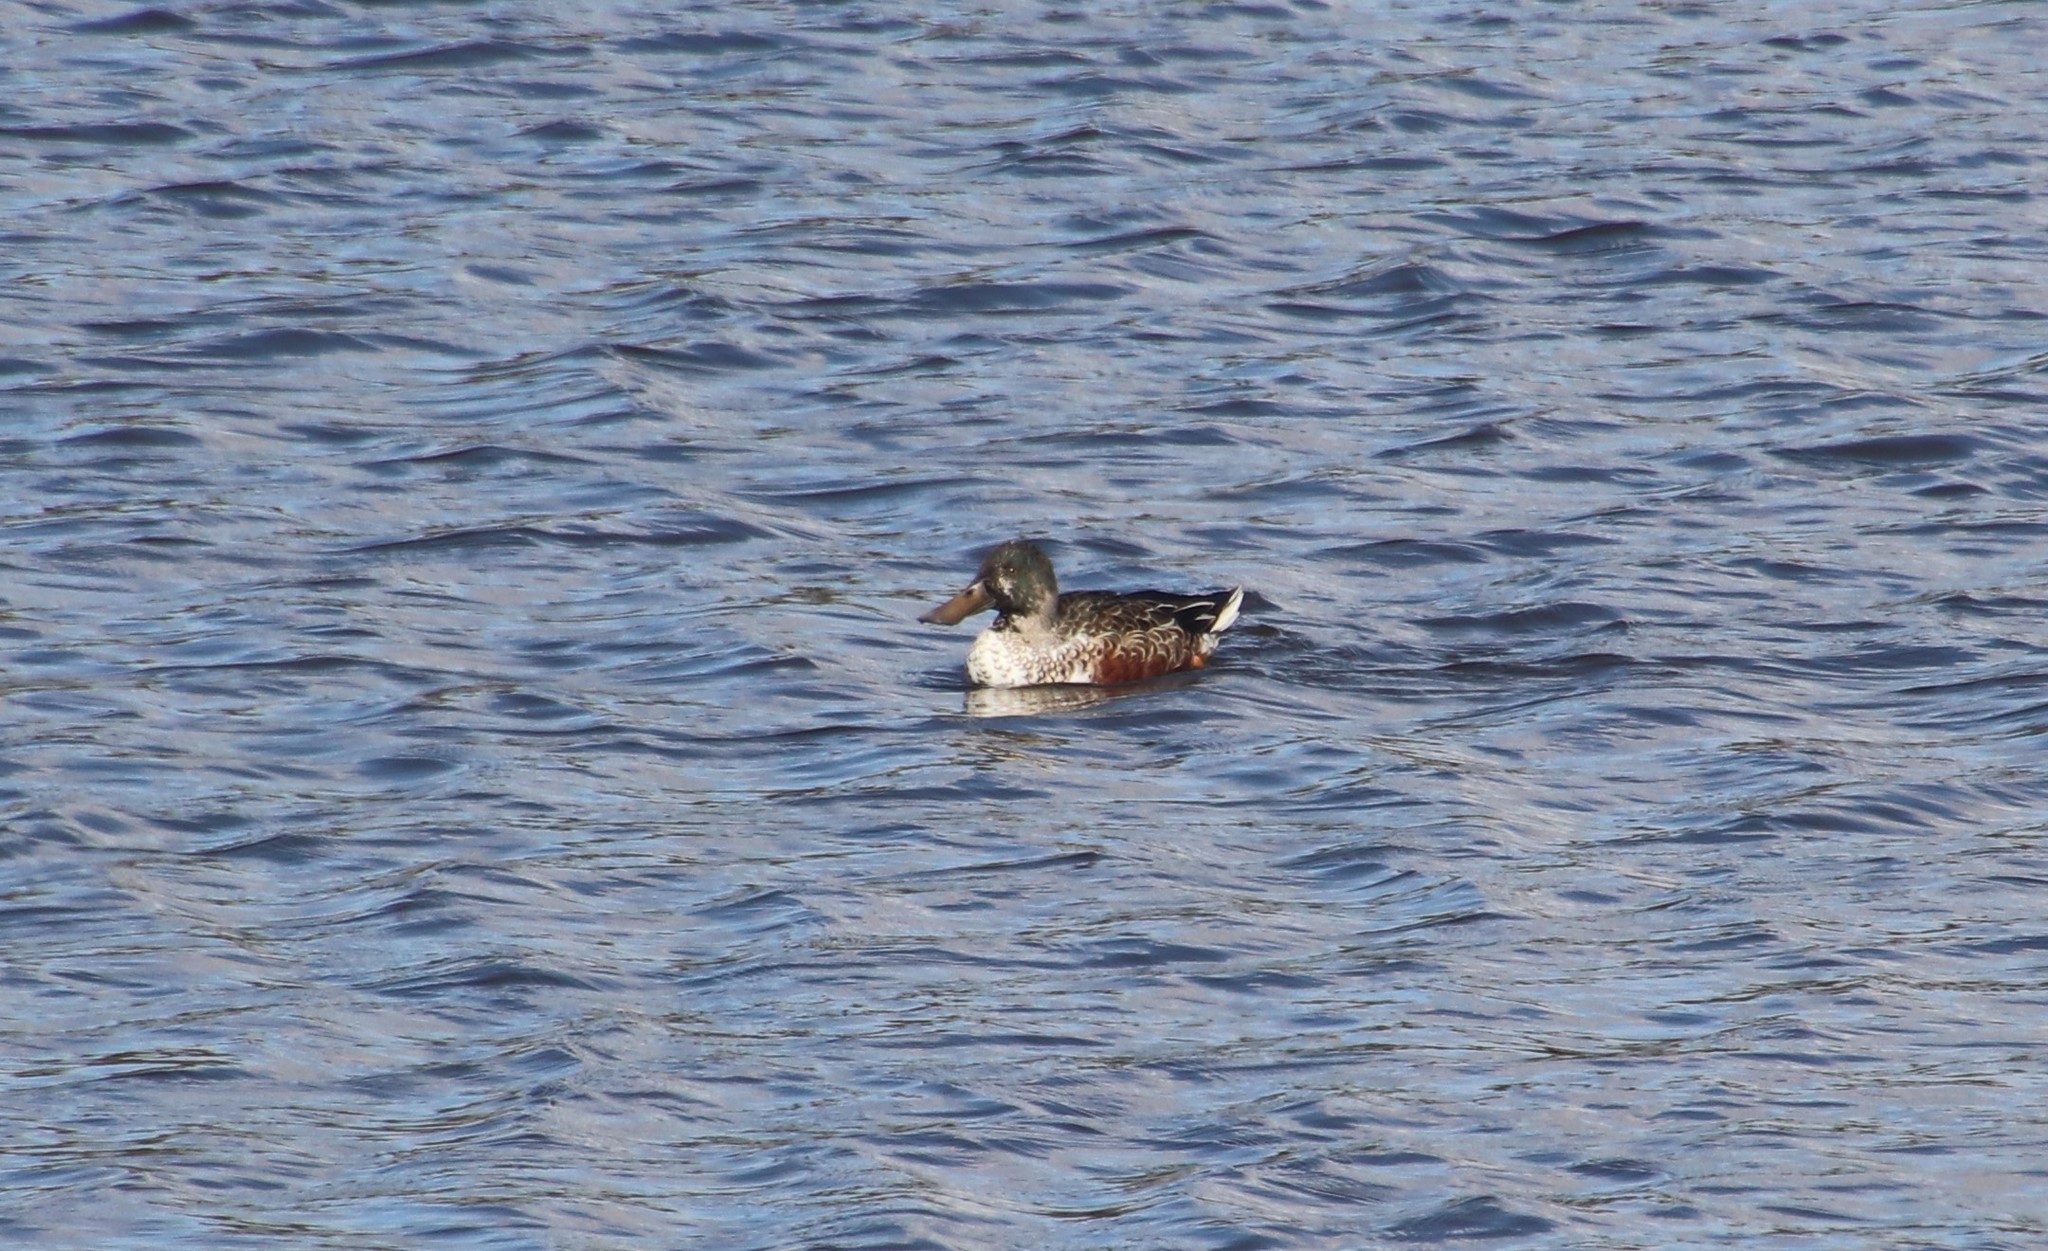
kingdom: Animalia
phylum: Chordata
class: Aves
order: Anseriformes
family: Anatidae
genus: Spatula
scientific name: Spatula clypeata
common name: Northern shoveler
